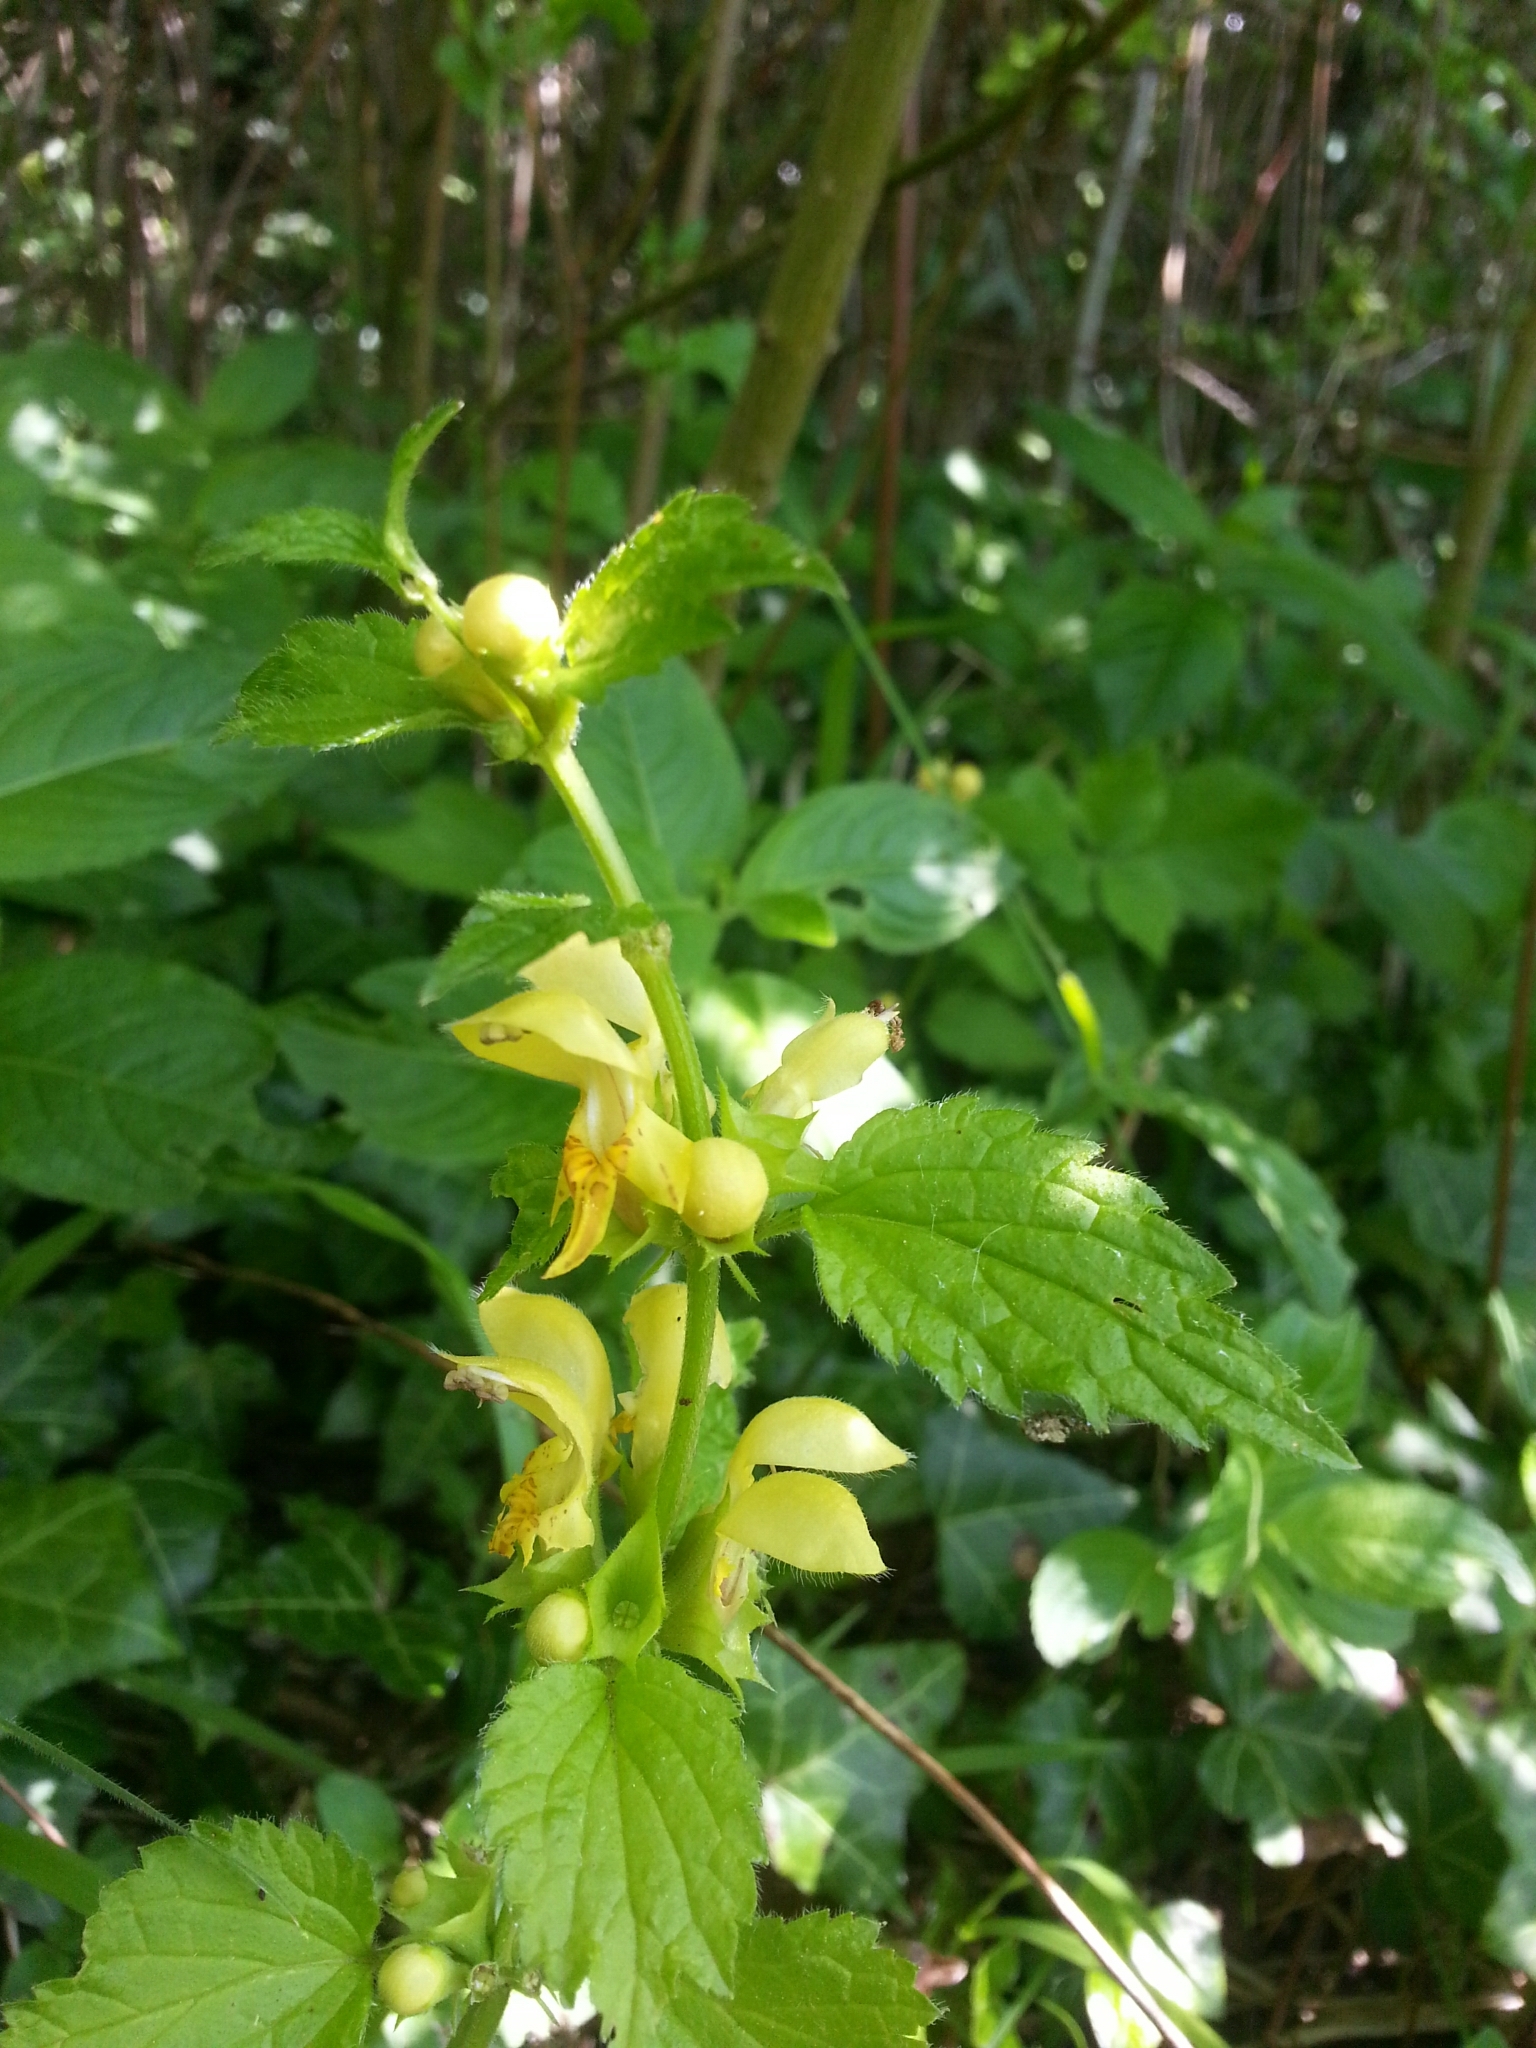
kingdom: Plantae
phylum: Tracheophyta
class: Magnoliopsida
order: Lamiales
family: Lamiaceae
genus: Lamium
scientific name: Lamium galeobdolon
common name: Yellow archangel
